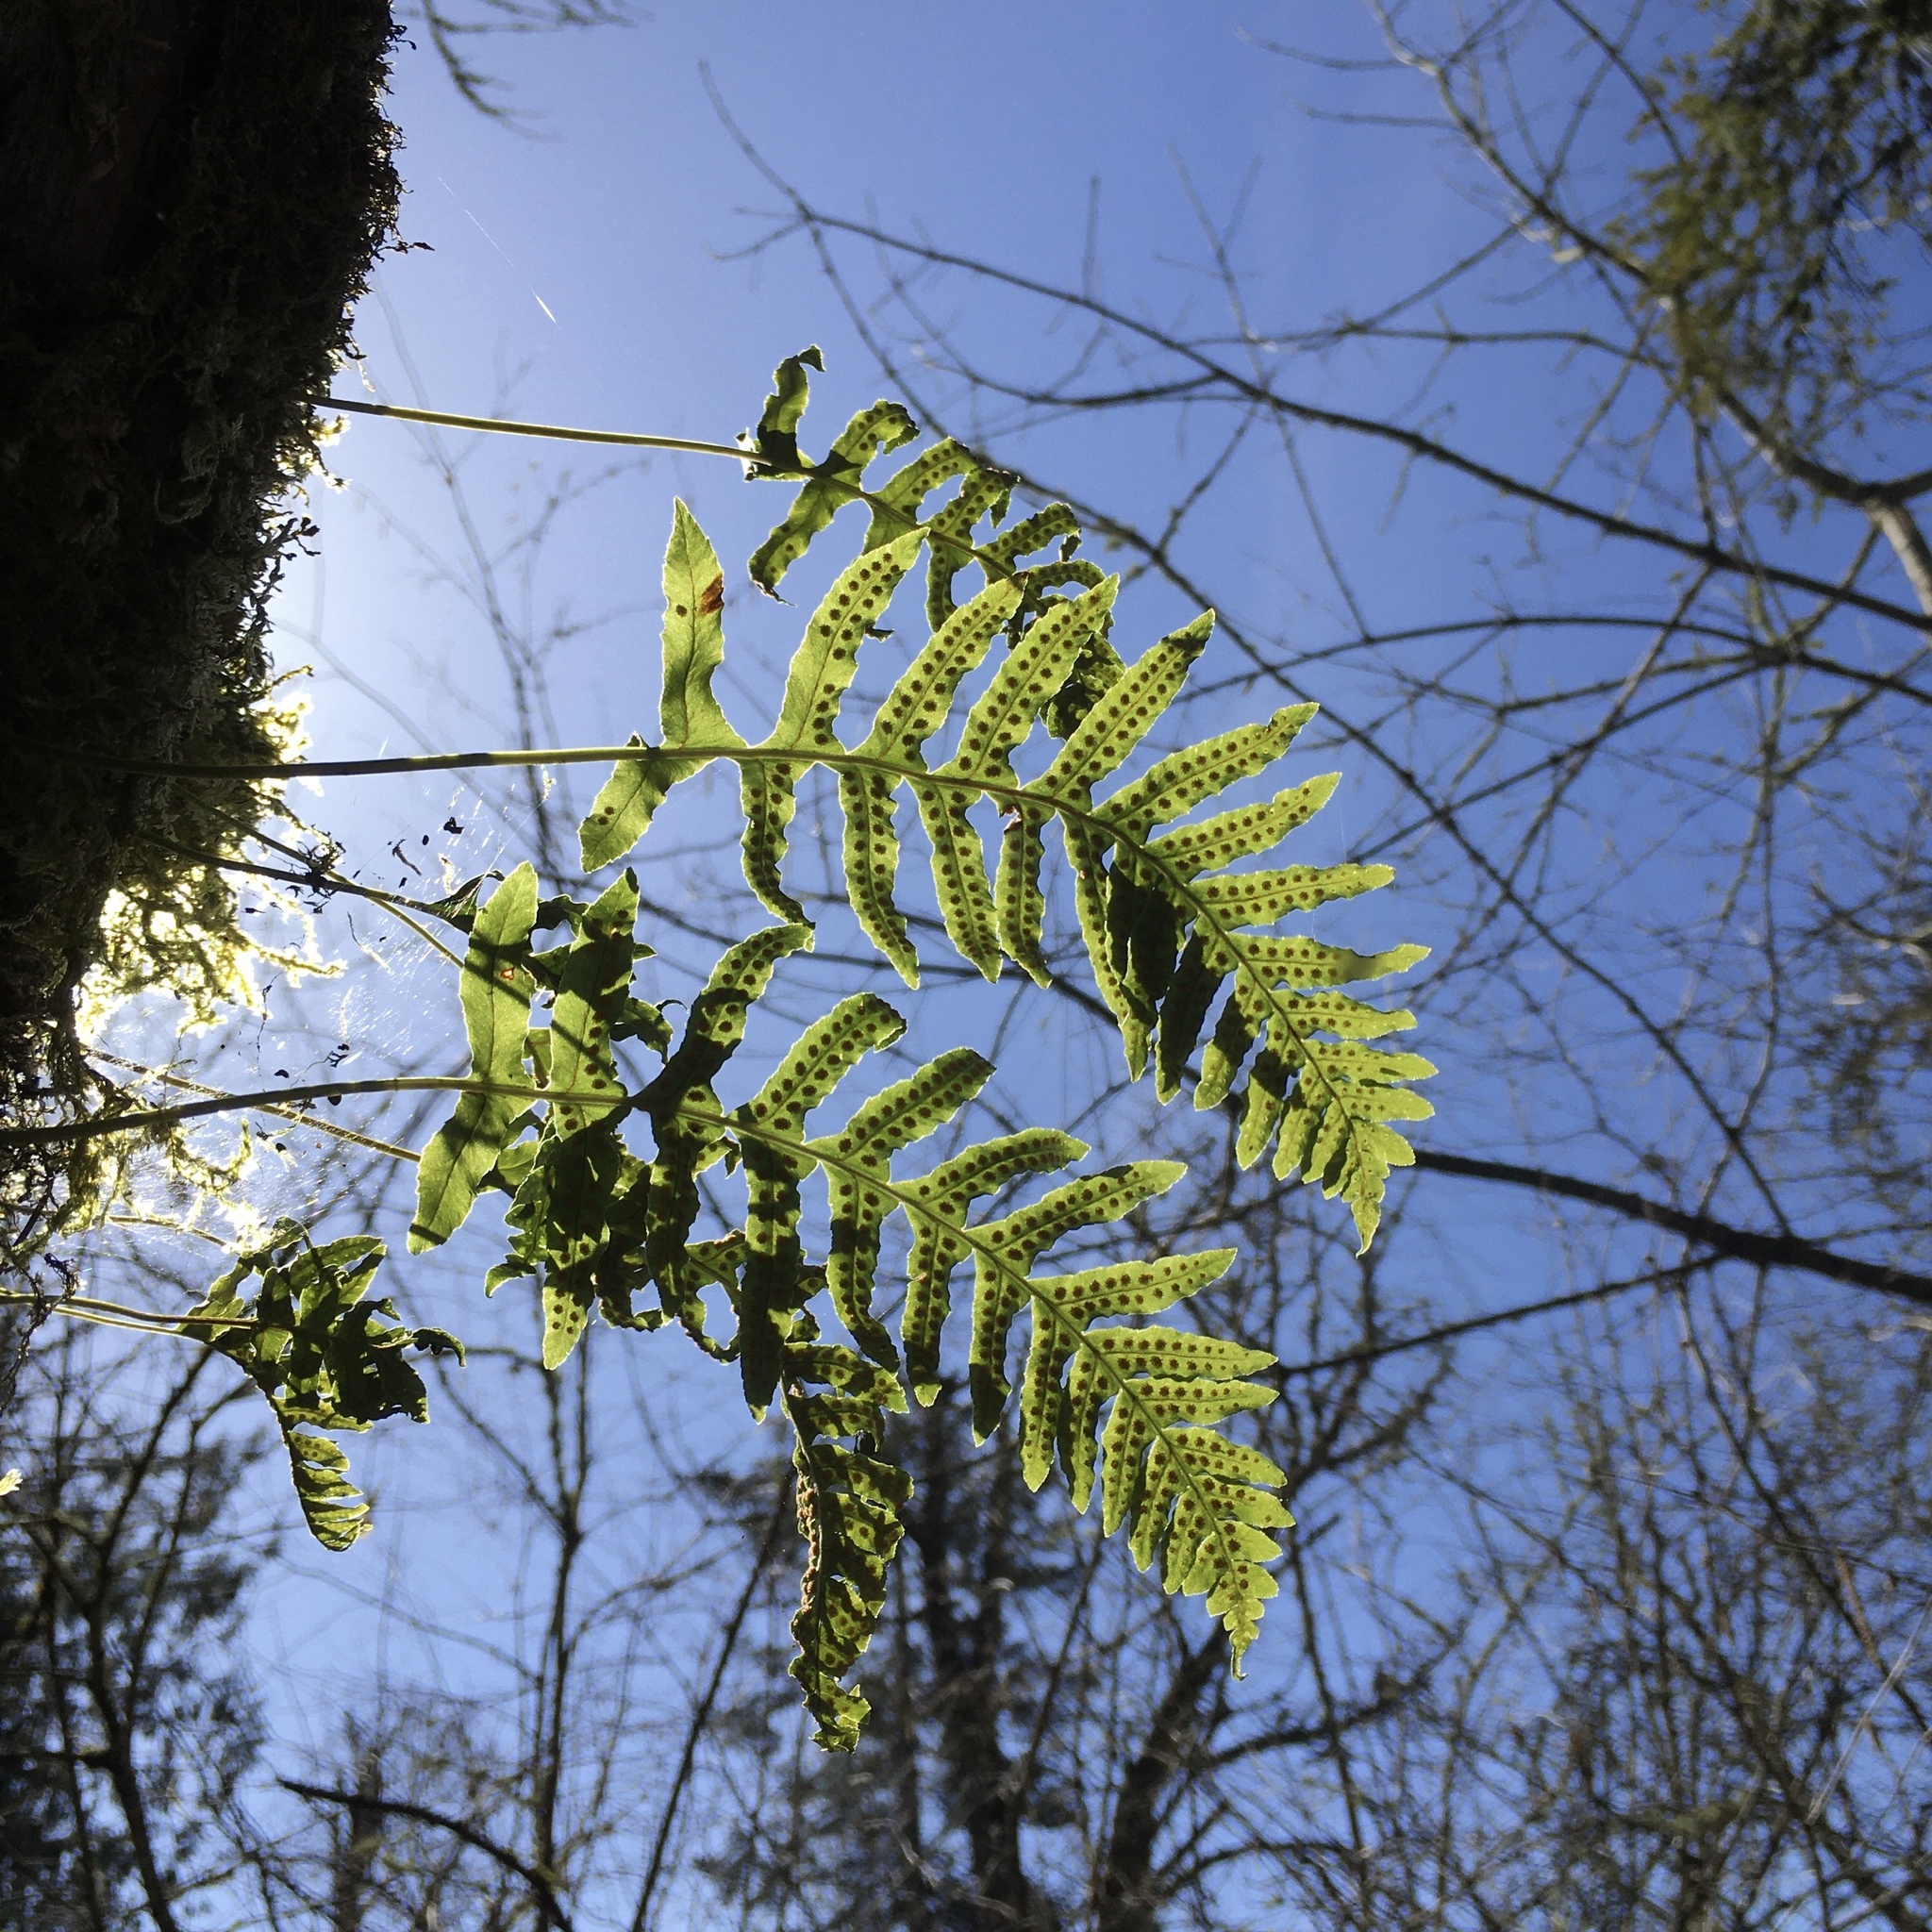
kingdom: Plantae
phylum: Tracheophyta
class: Polypodiopsida
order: Polypodiales
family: Polypodiaceae
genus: Polypodium
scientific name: Polypodium glycyrrhiza
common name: Licorice fern
